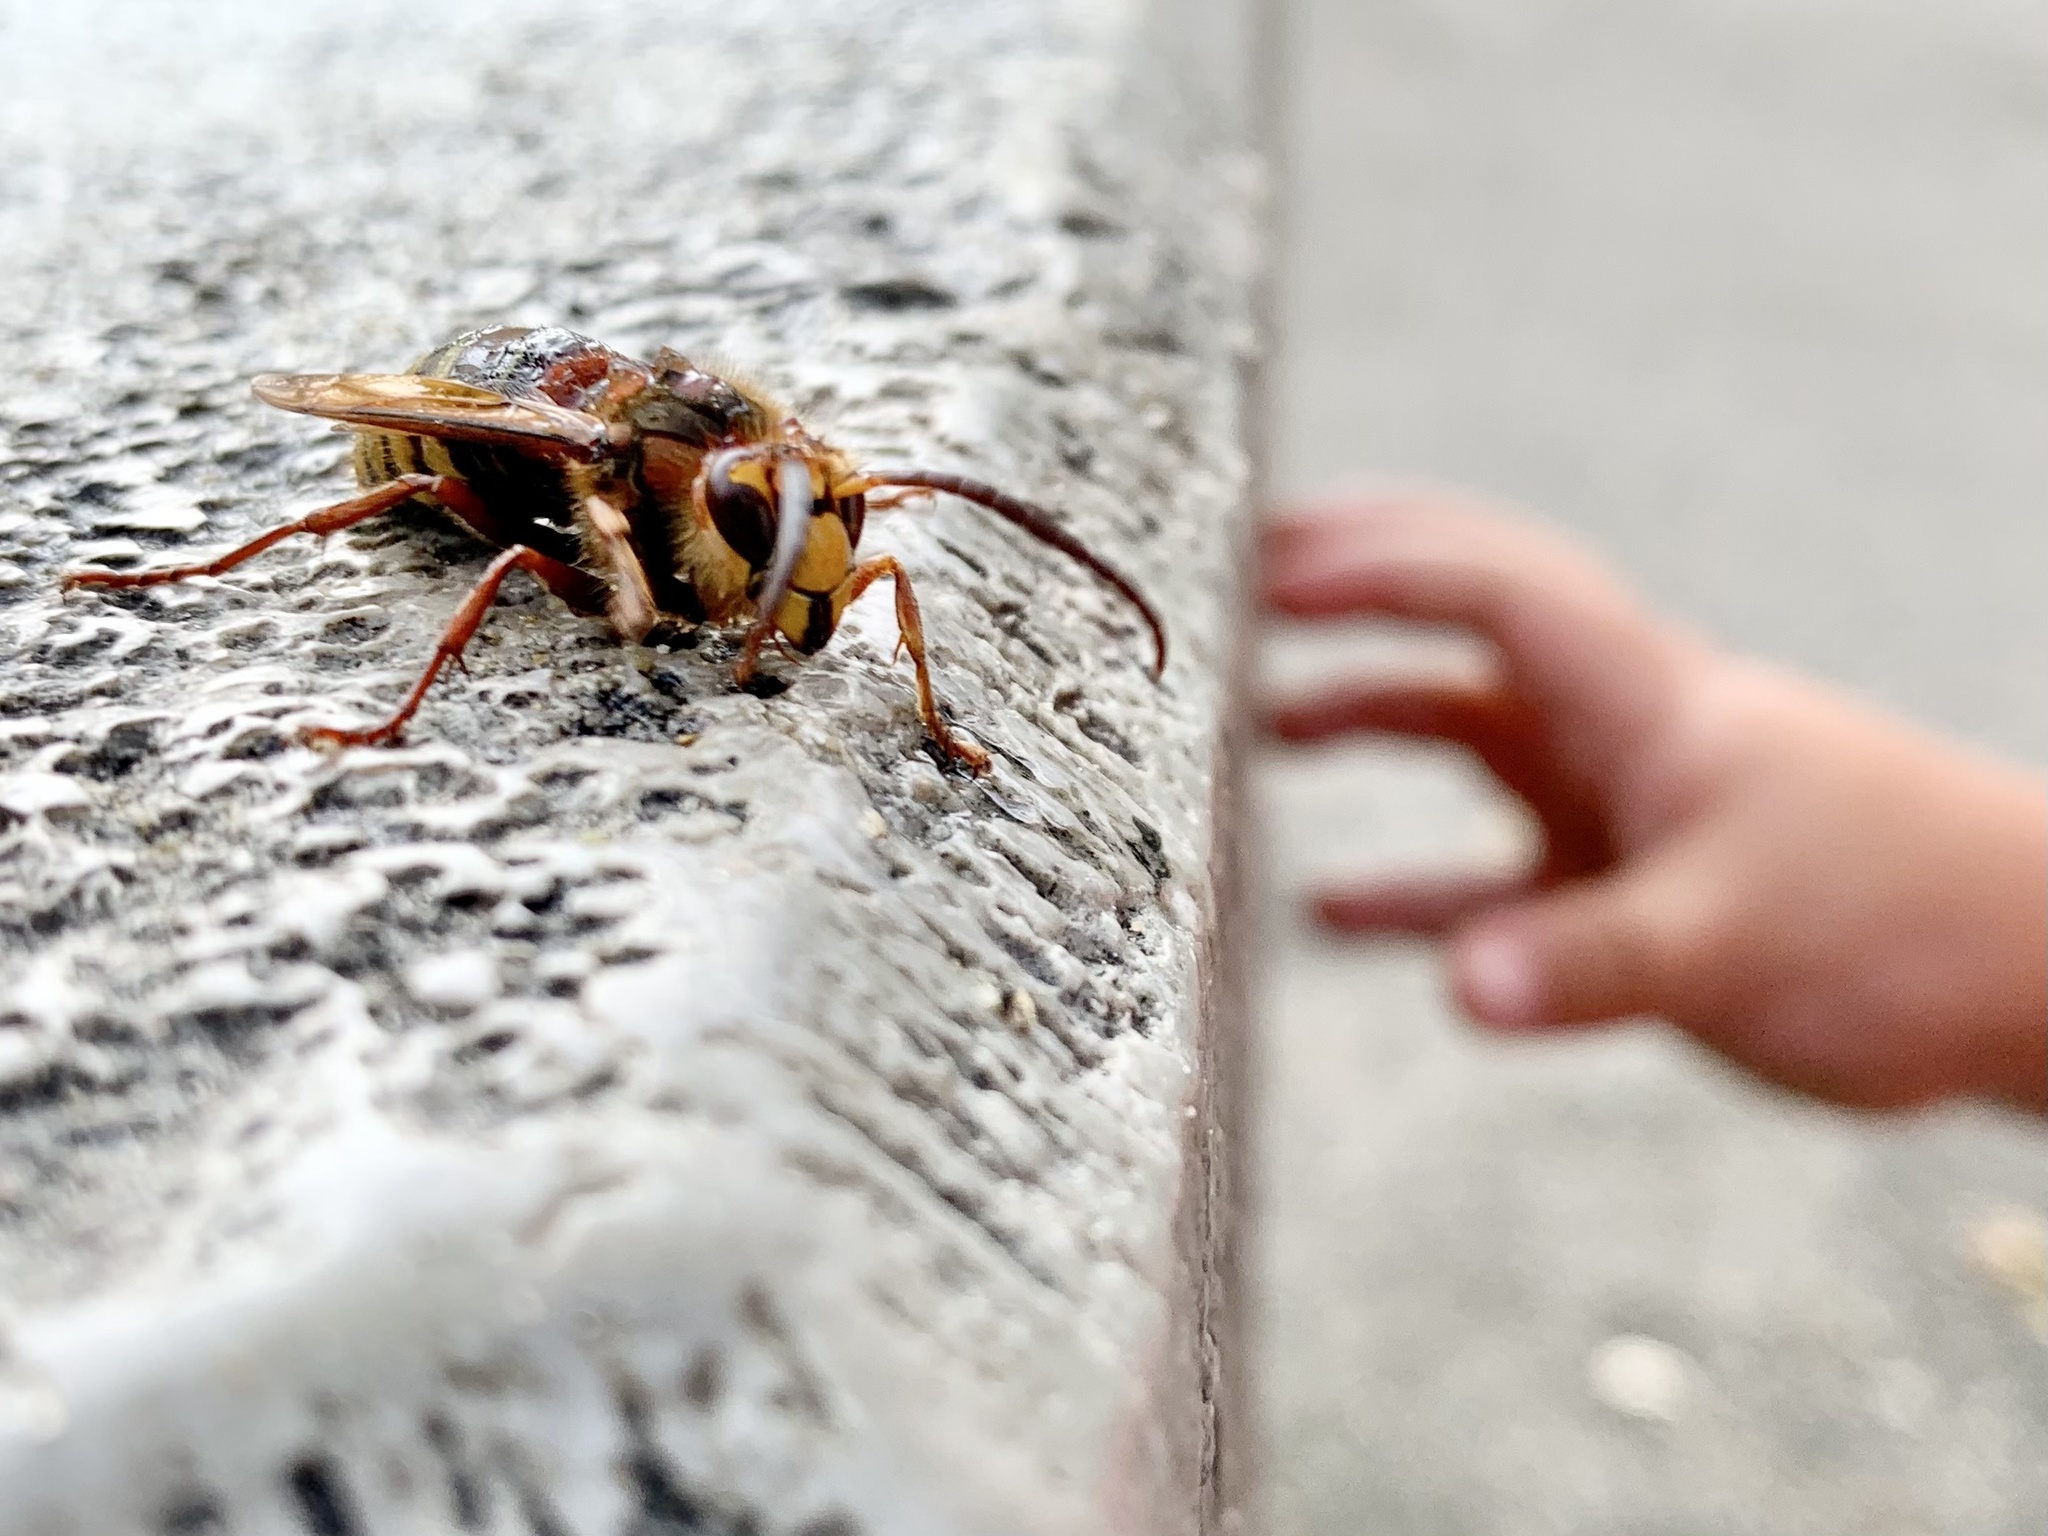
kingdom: Animalia
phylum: Arthropoda
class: Insecta
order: Hymenoptera
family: Vespidae
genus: Vespa
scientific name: Vespa crabro
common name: Hornet
